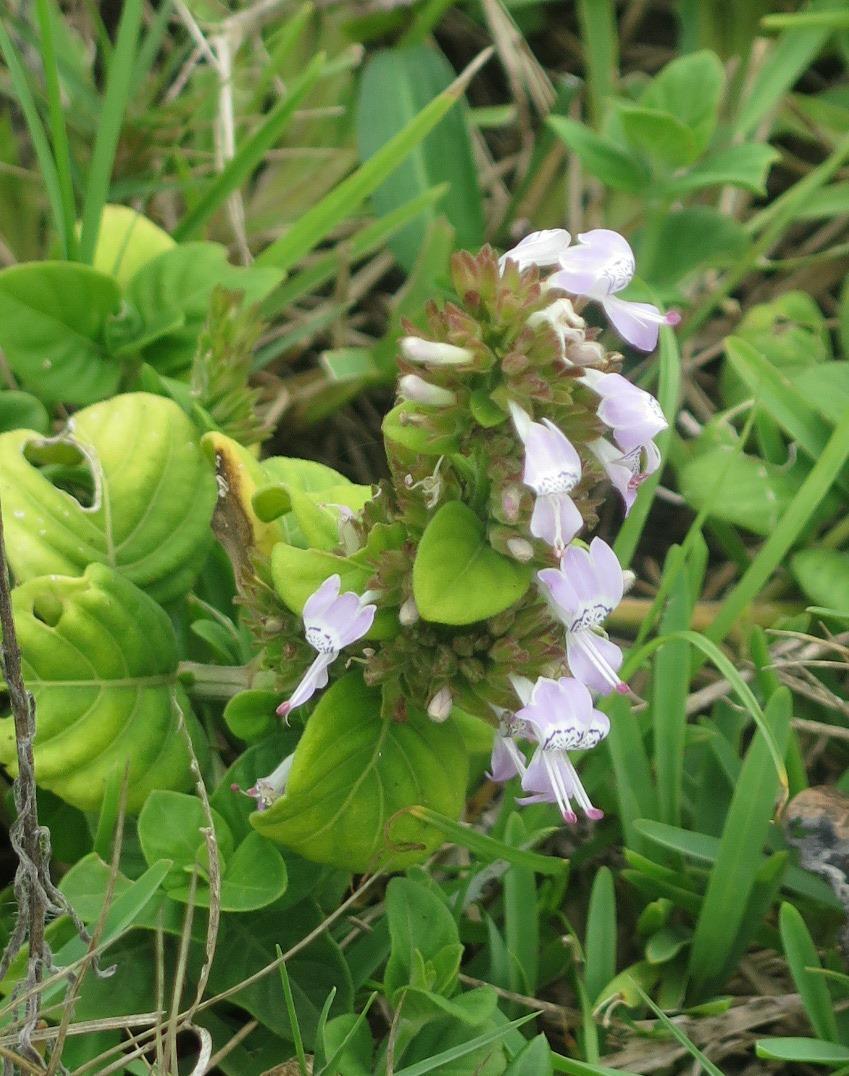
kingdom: Plantae
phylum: Tracheophyta
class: Magnoliopsida
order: Lamiales
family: Acanthaceae
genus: Hypoestes
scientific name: Hypoestes forskaolii
